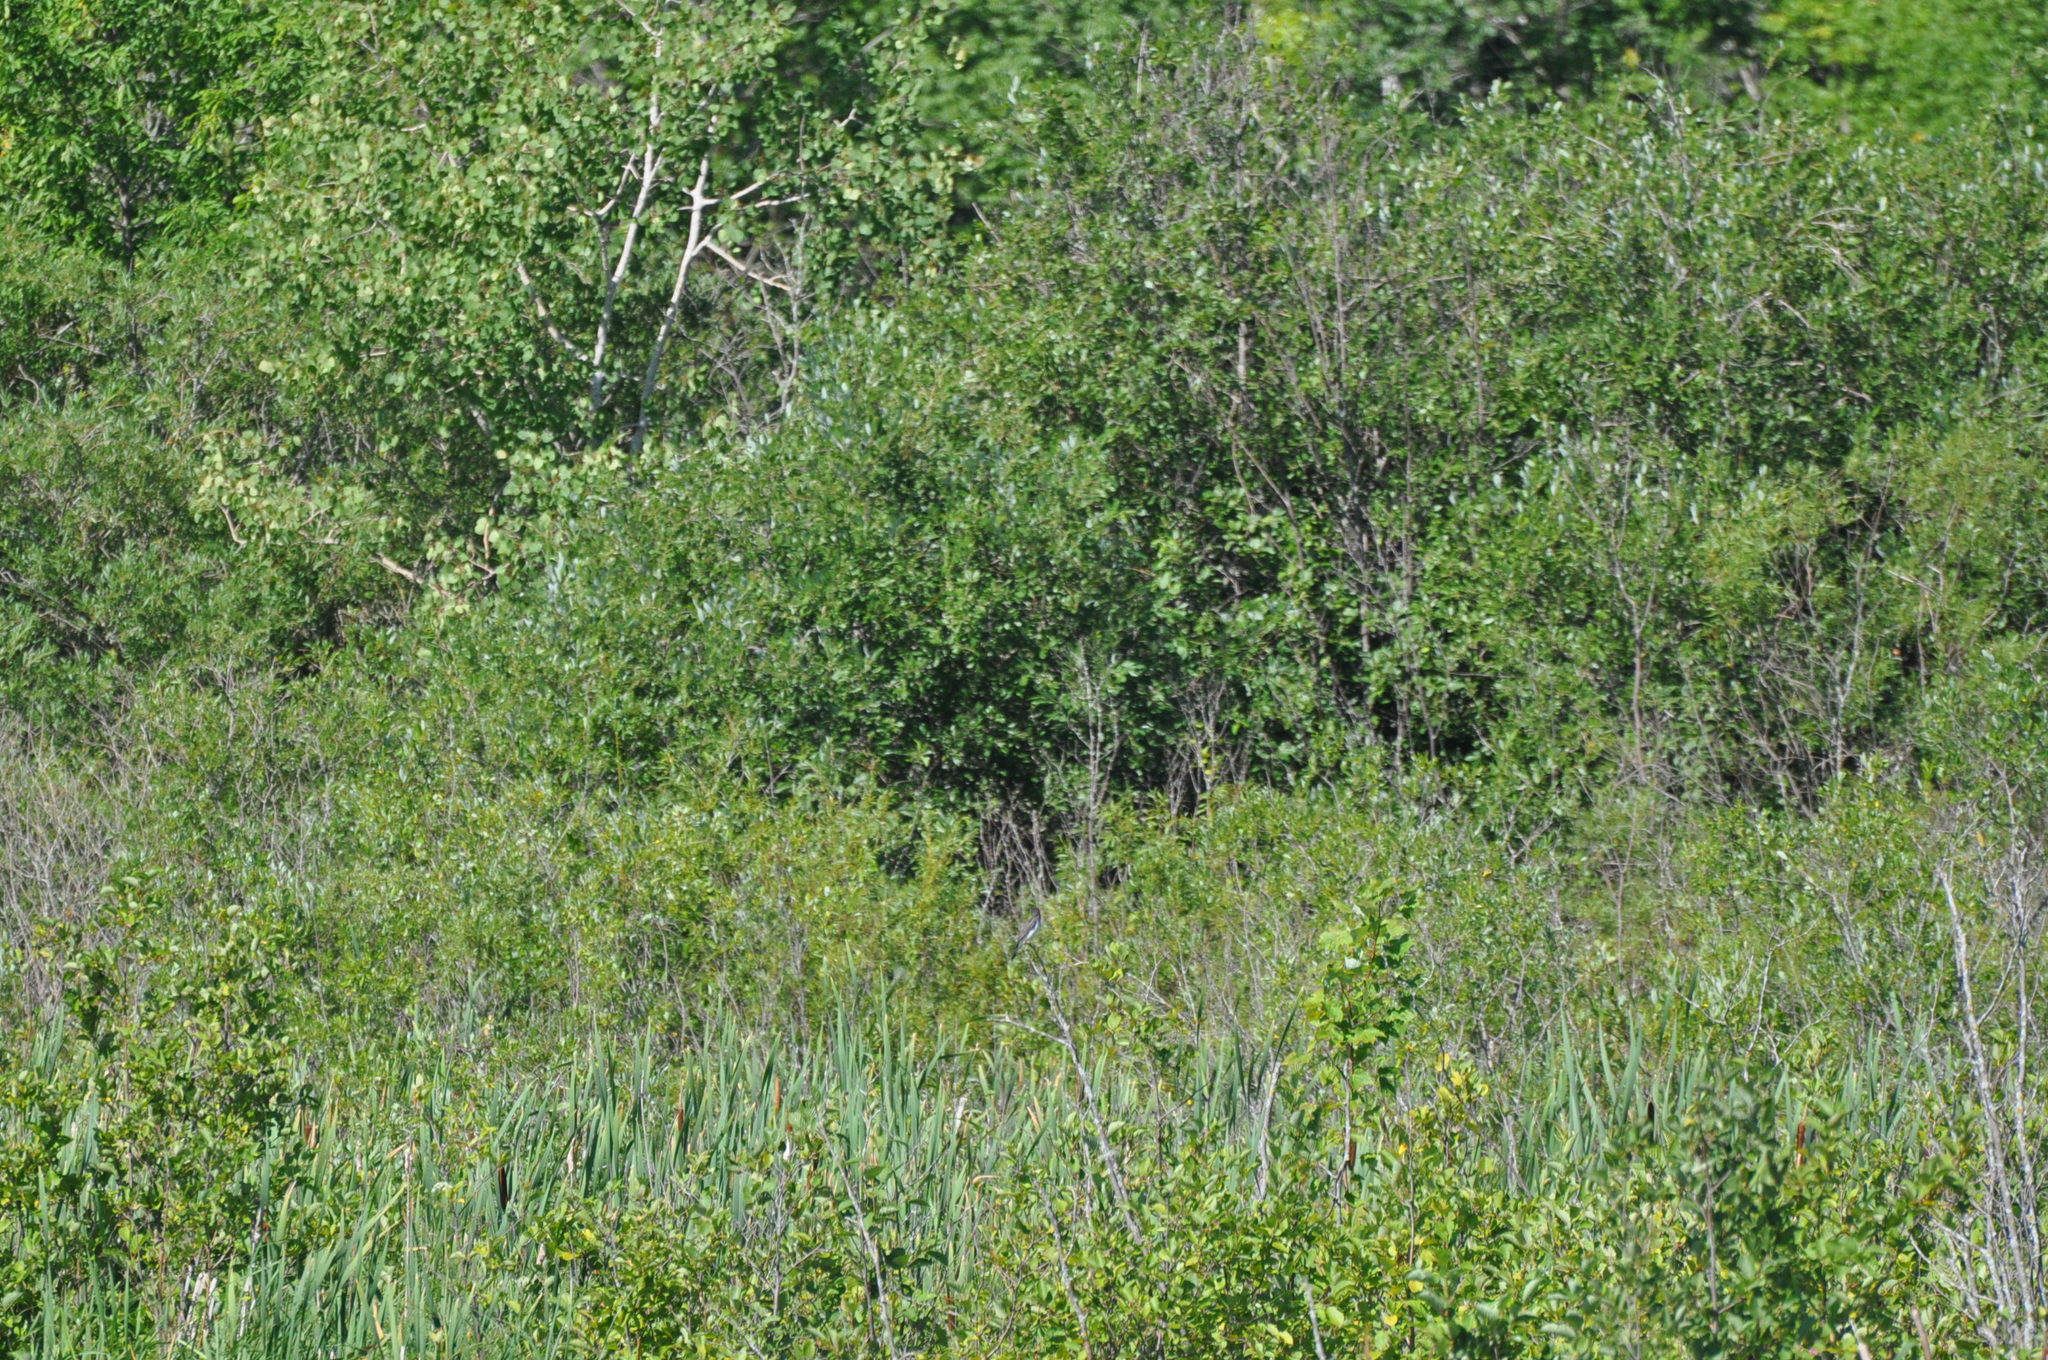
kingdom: Animalia
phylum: Chordata
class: Aves
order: Passeriformes
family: Tyrannidae
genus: Tyrannus
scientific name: Tyrannus tyrannus
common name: Eastern kingbird
